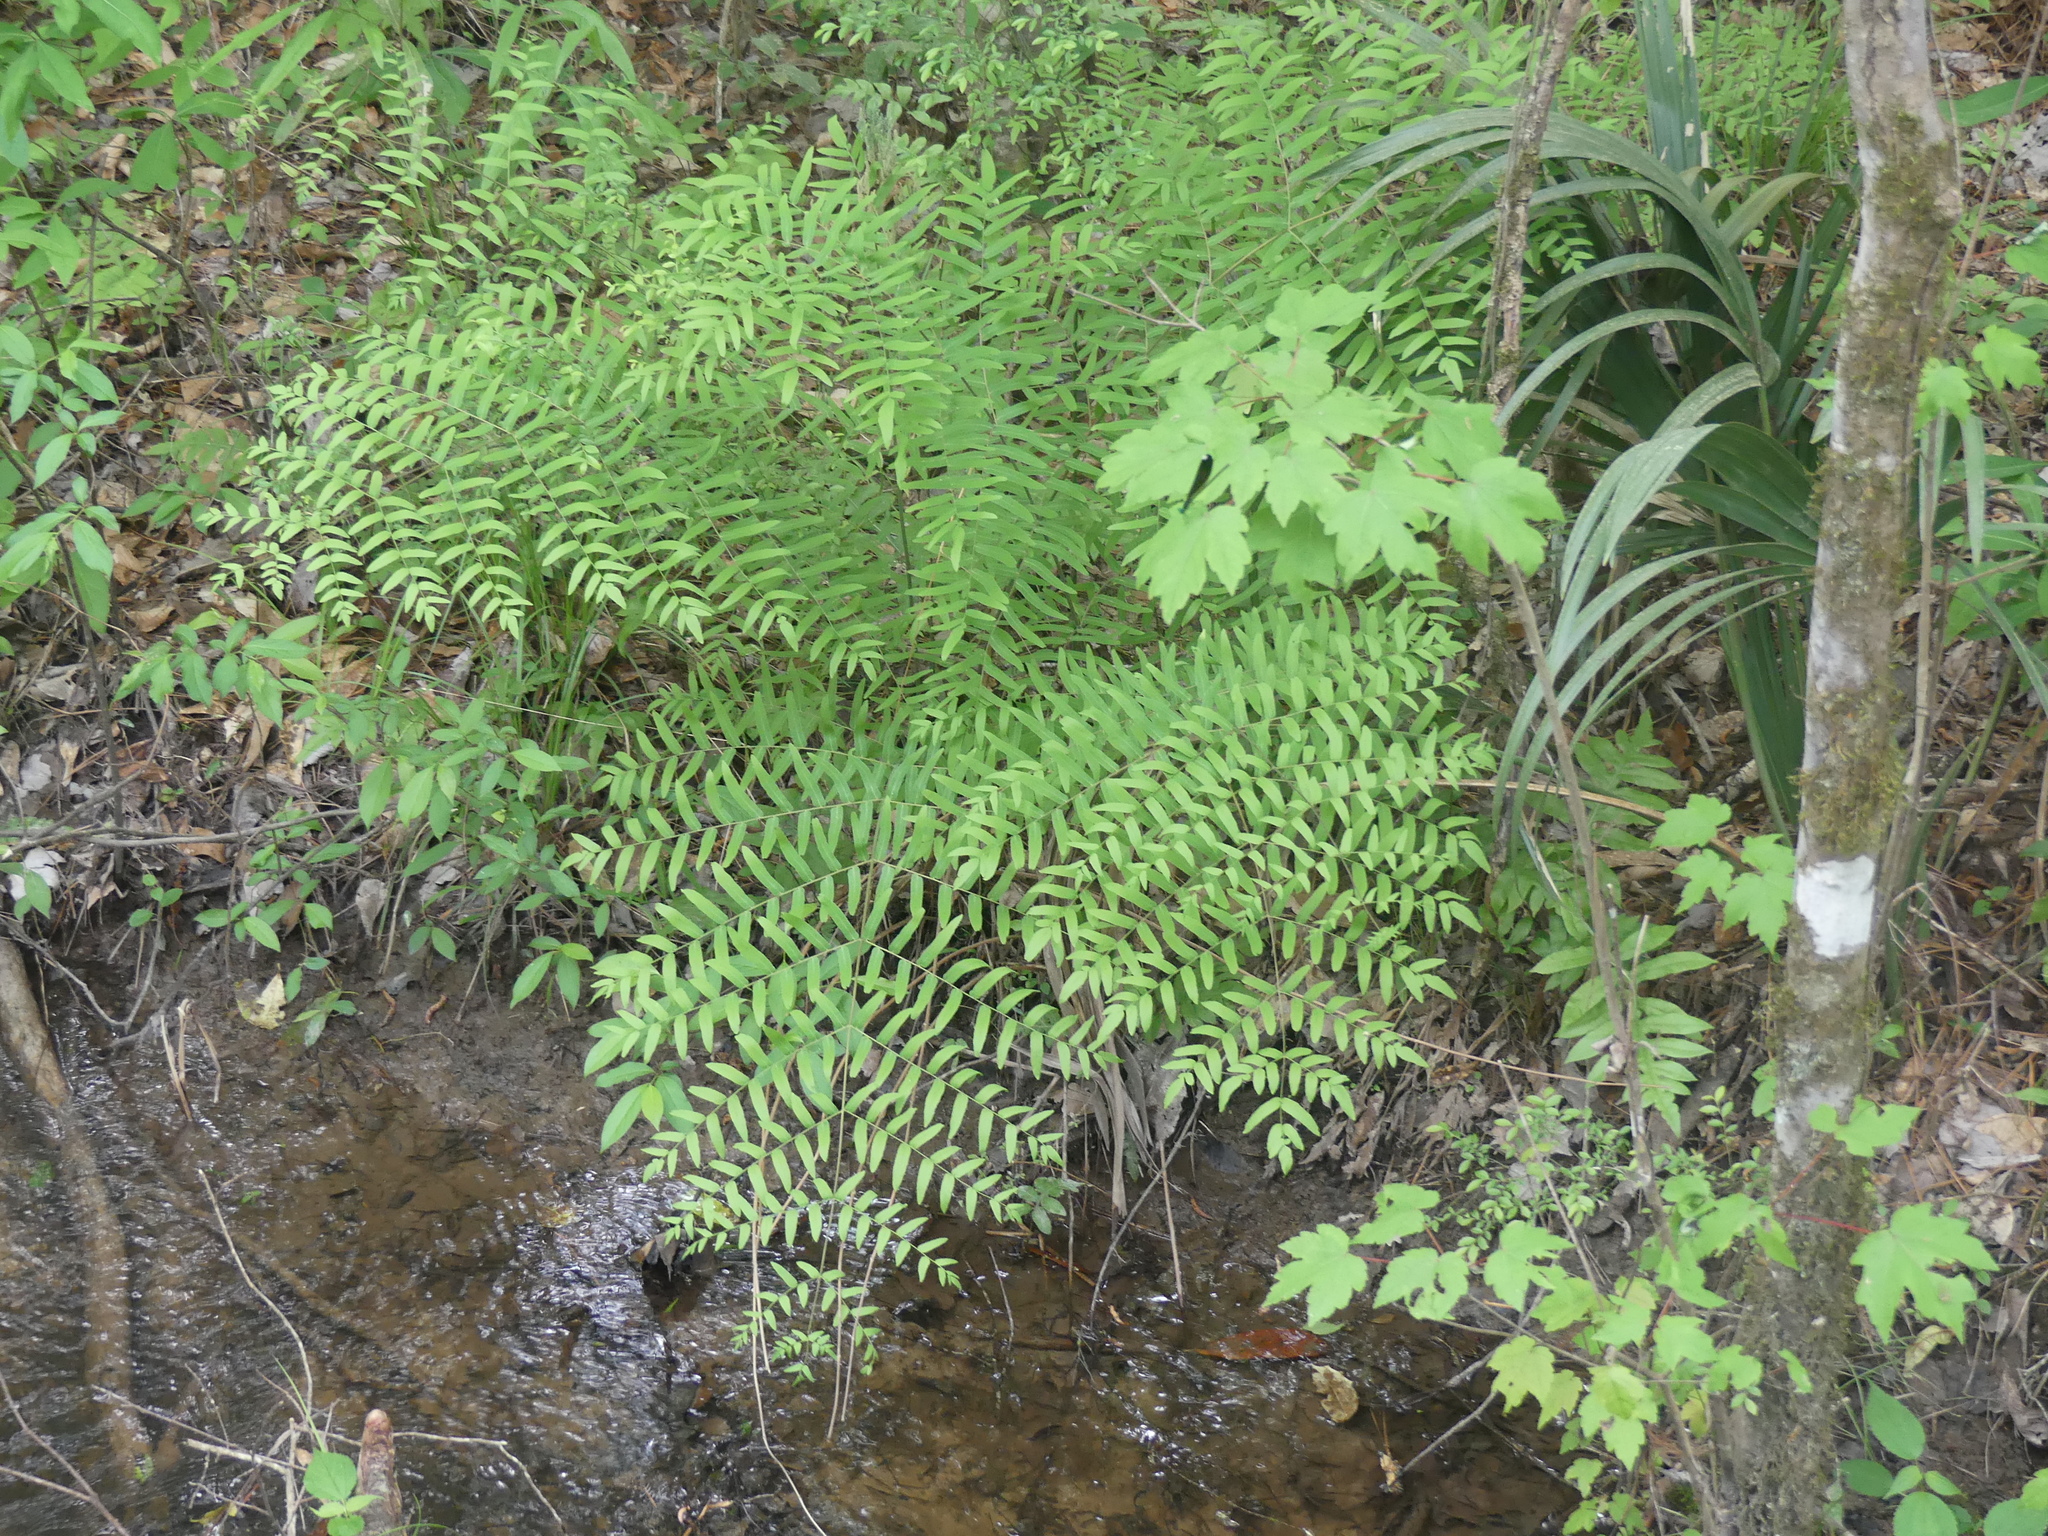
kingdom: Plantae
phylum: Tracheophyta
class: Polypodiopsida
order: Osmundales
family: Osmundaceae
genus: Osmunda
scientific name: Osmunda spectabilis
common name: American royal fern
